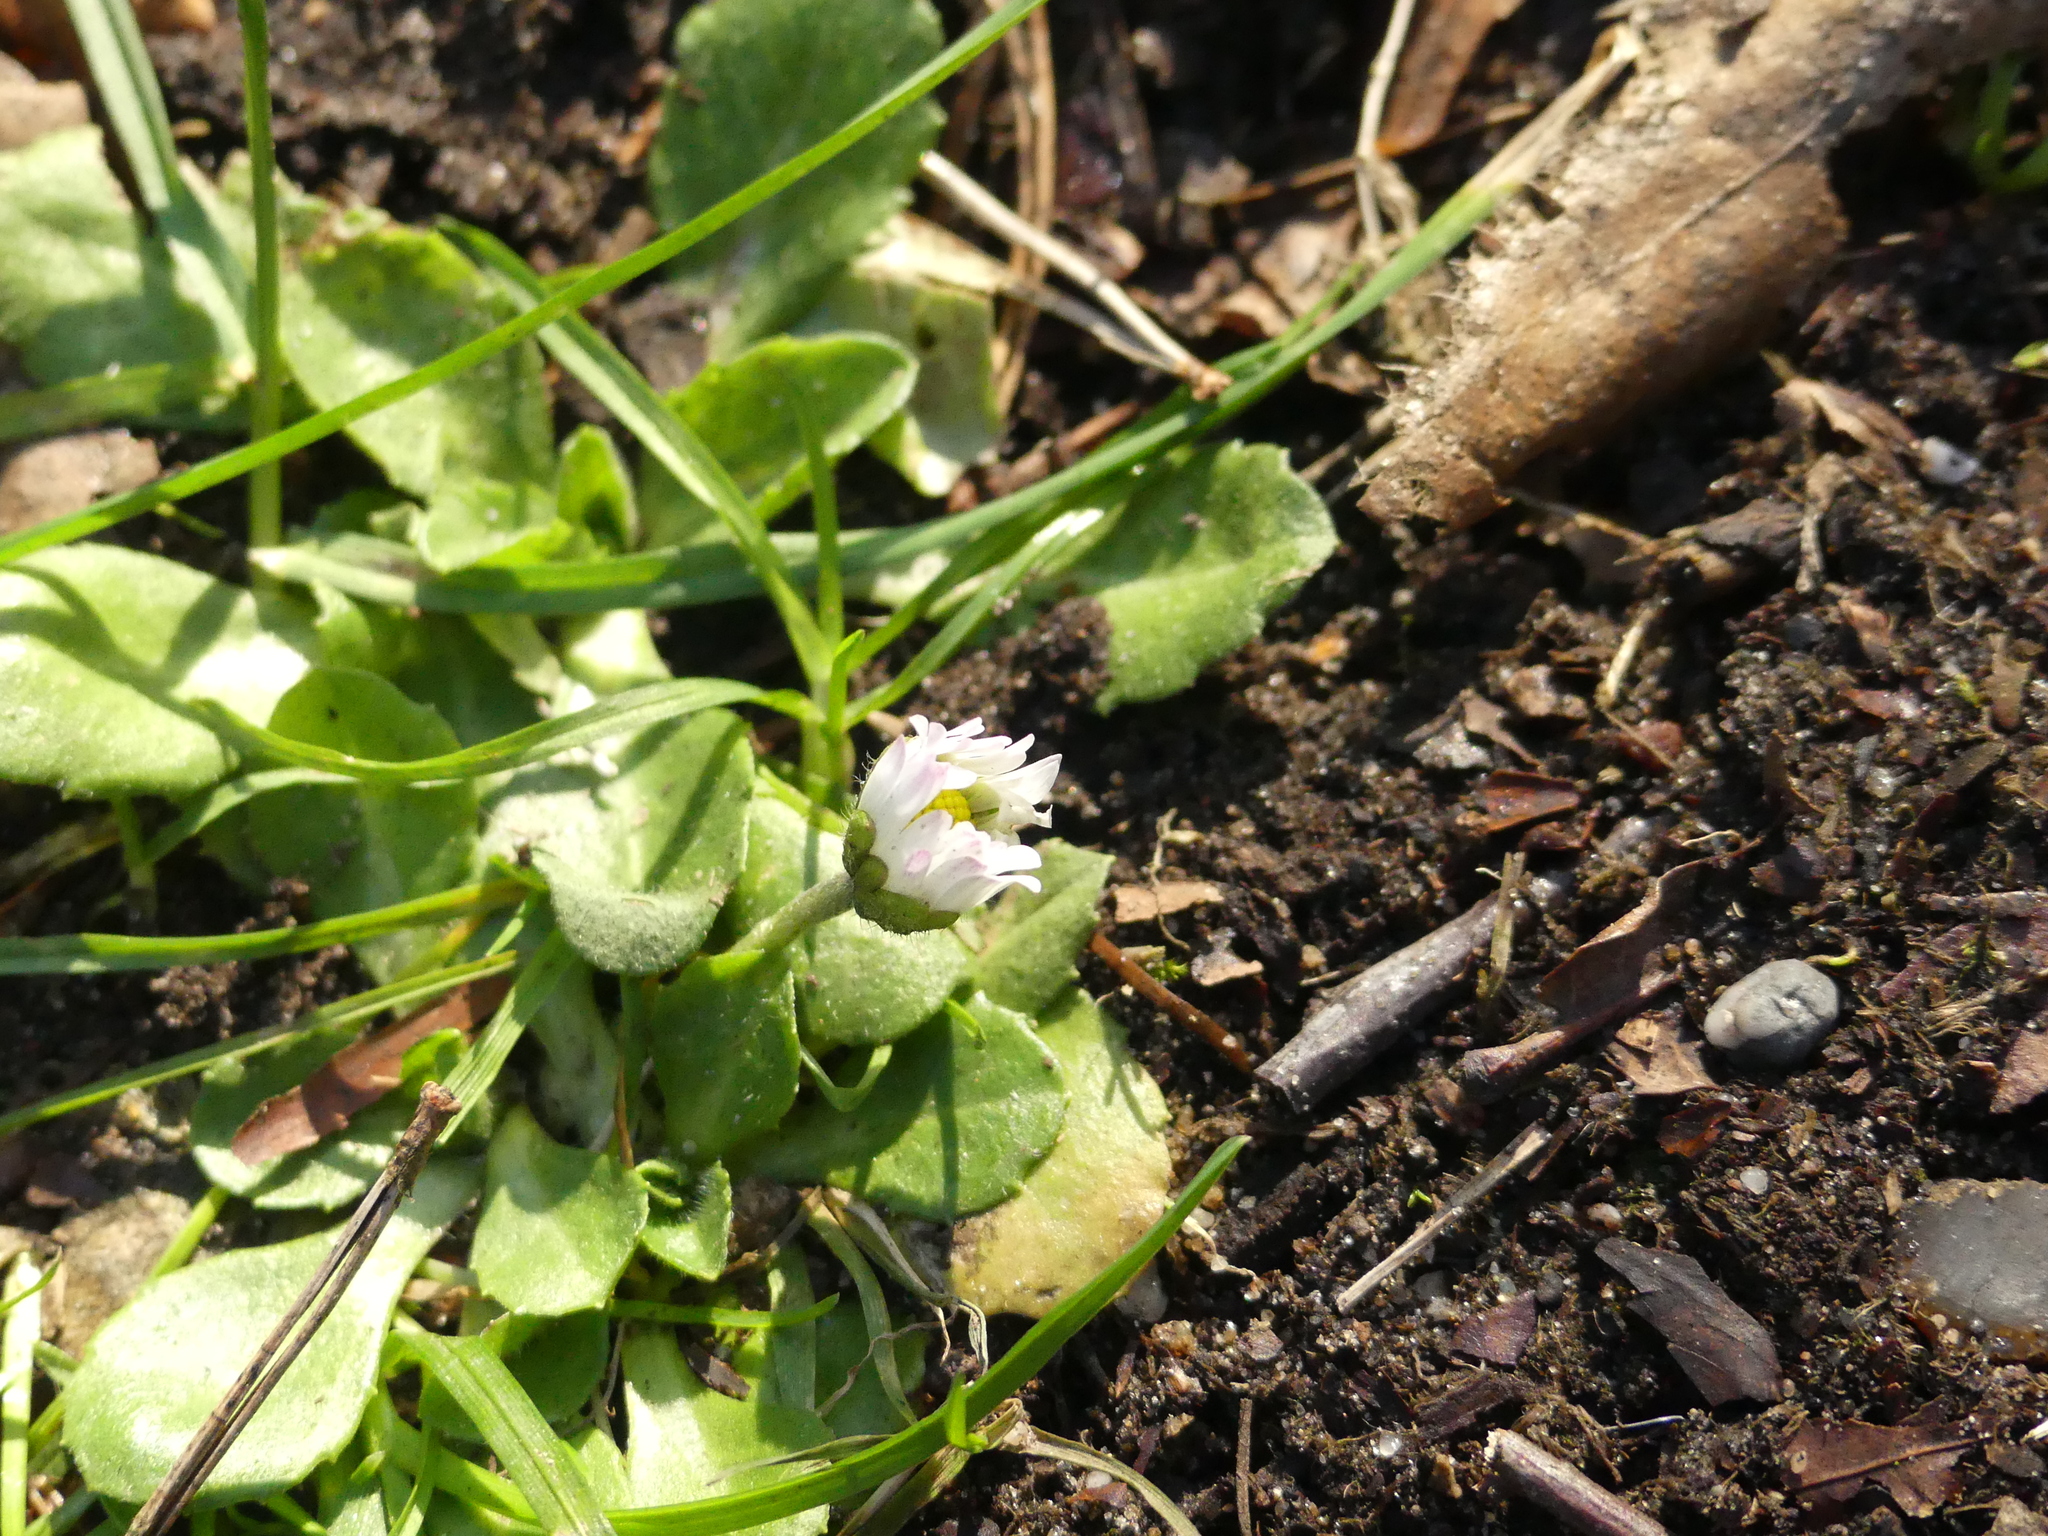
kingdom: Plantae
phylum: Tracheophyta
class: Magnoliopsida
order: Asterales
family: Asteraceae
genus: Bellis
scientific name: Bellis perennis
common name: Lawndaisy
